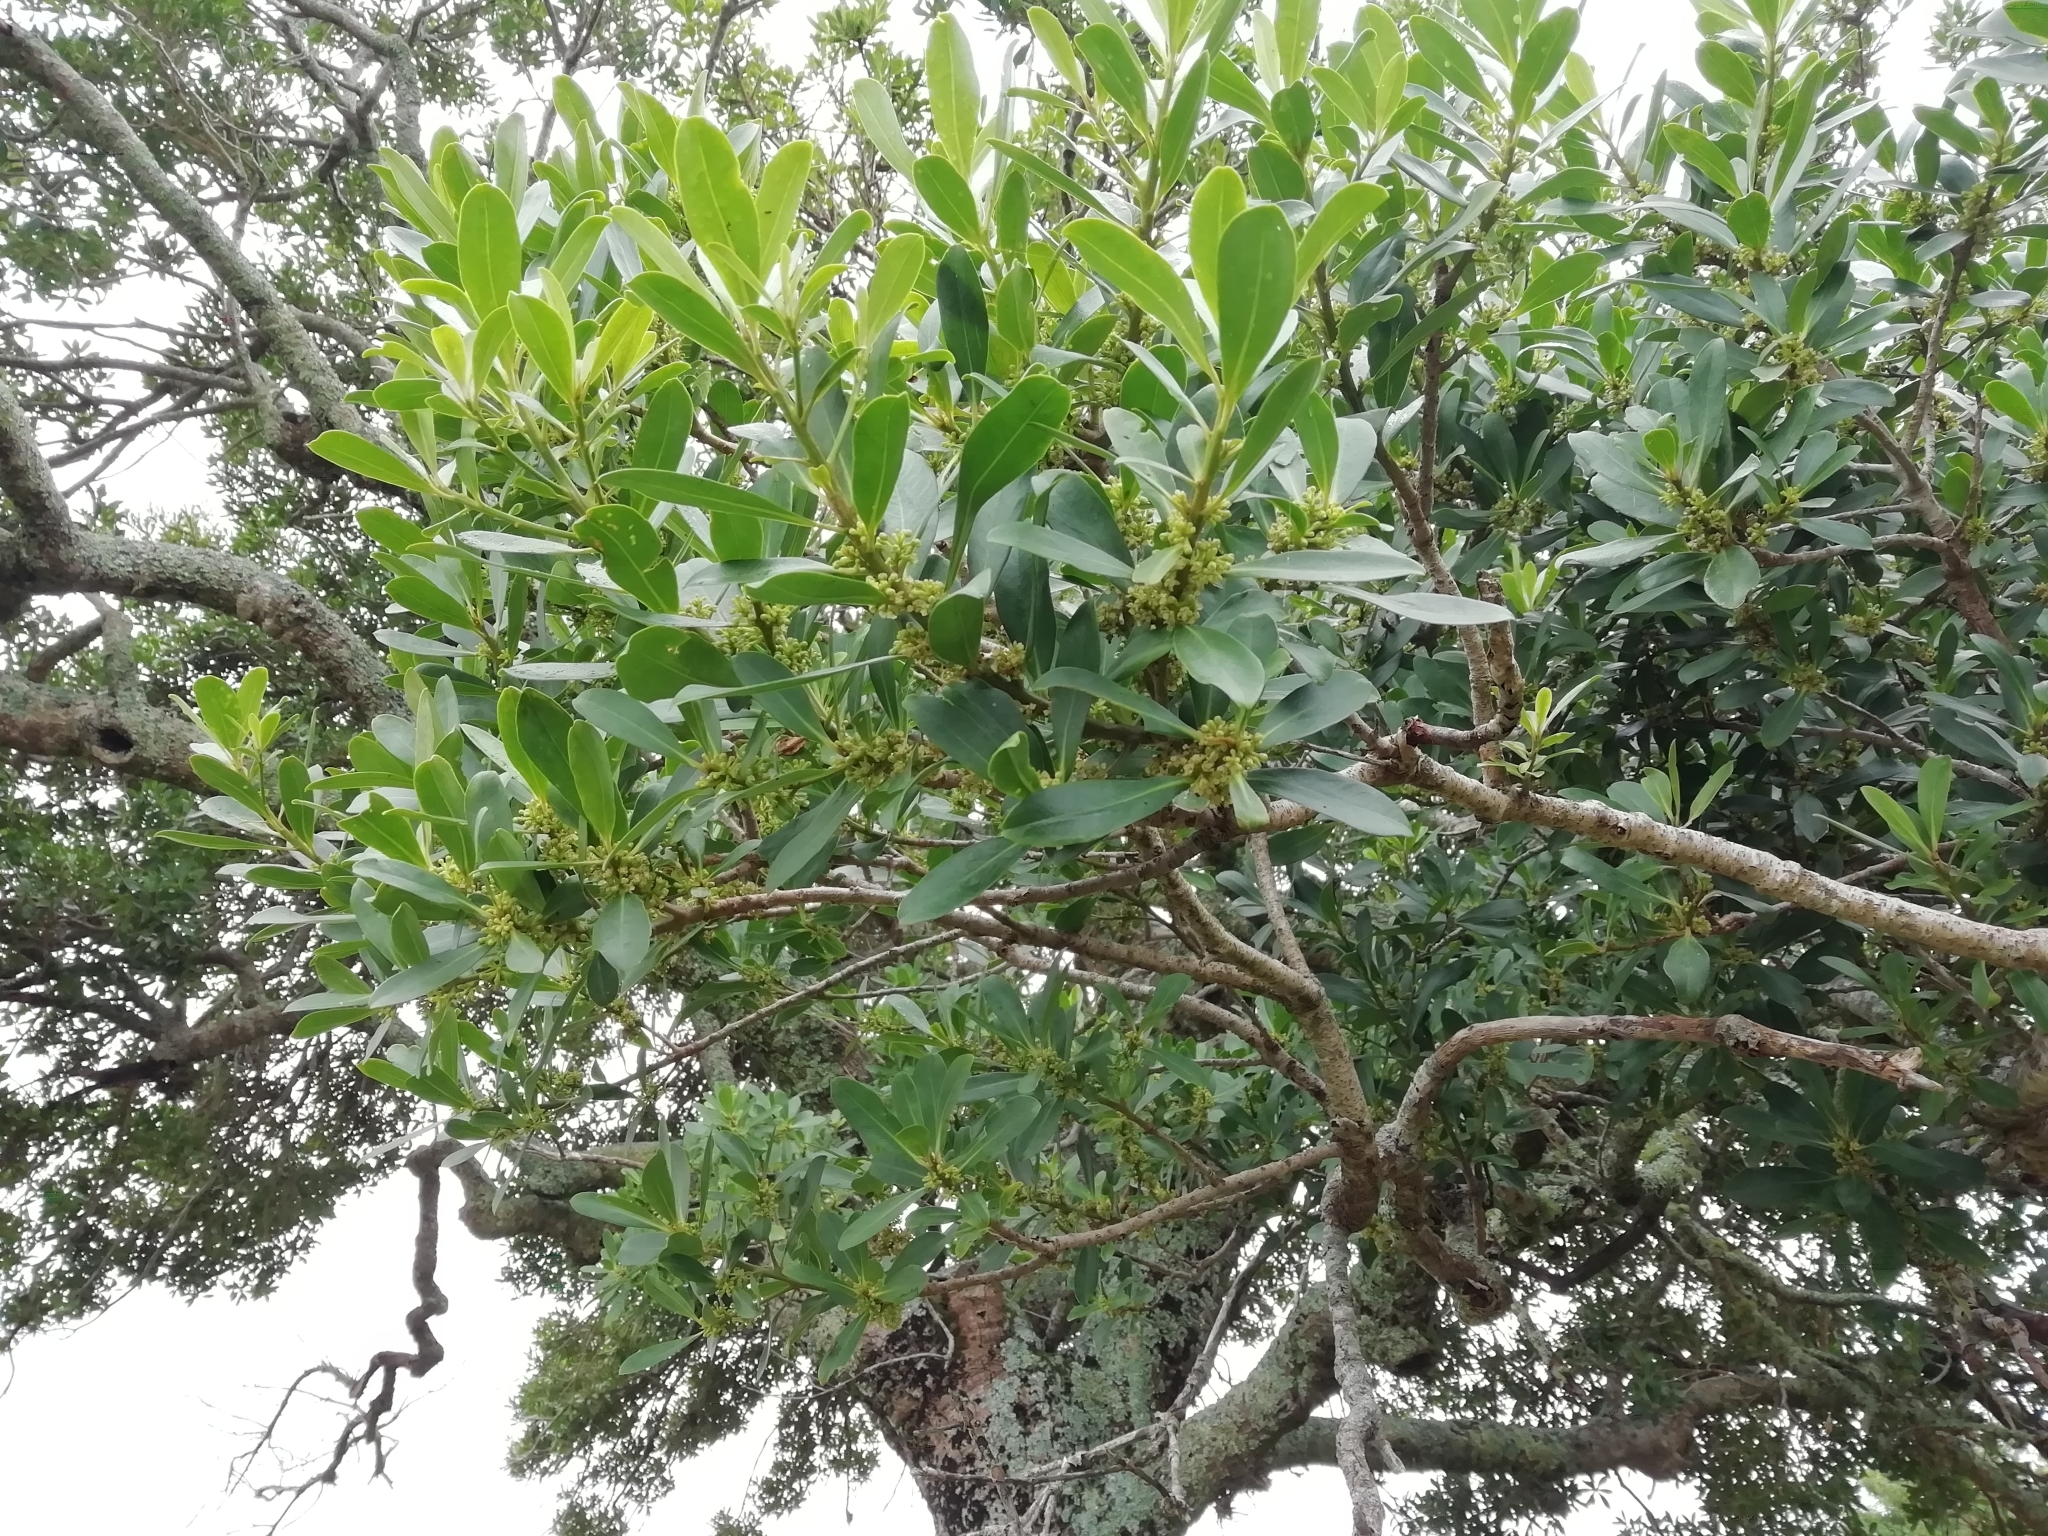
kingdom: Plantae
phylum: Tracheophyta
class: Magnoliopsida
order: Ericales
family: Primulaceae
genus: Myrsine
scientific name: Myrsine laetevirens
